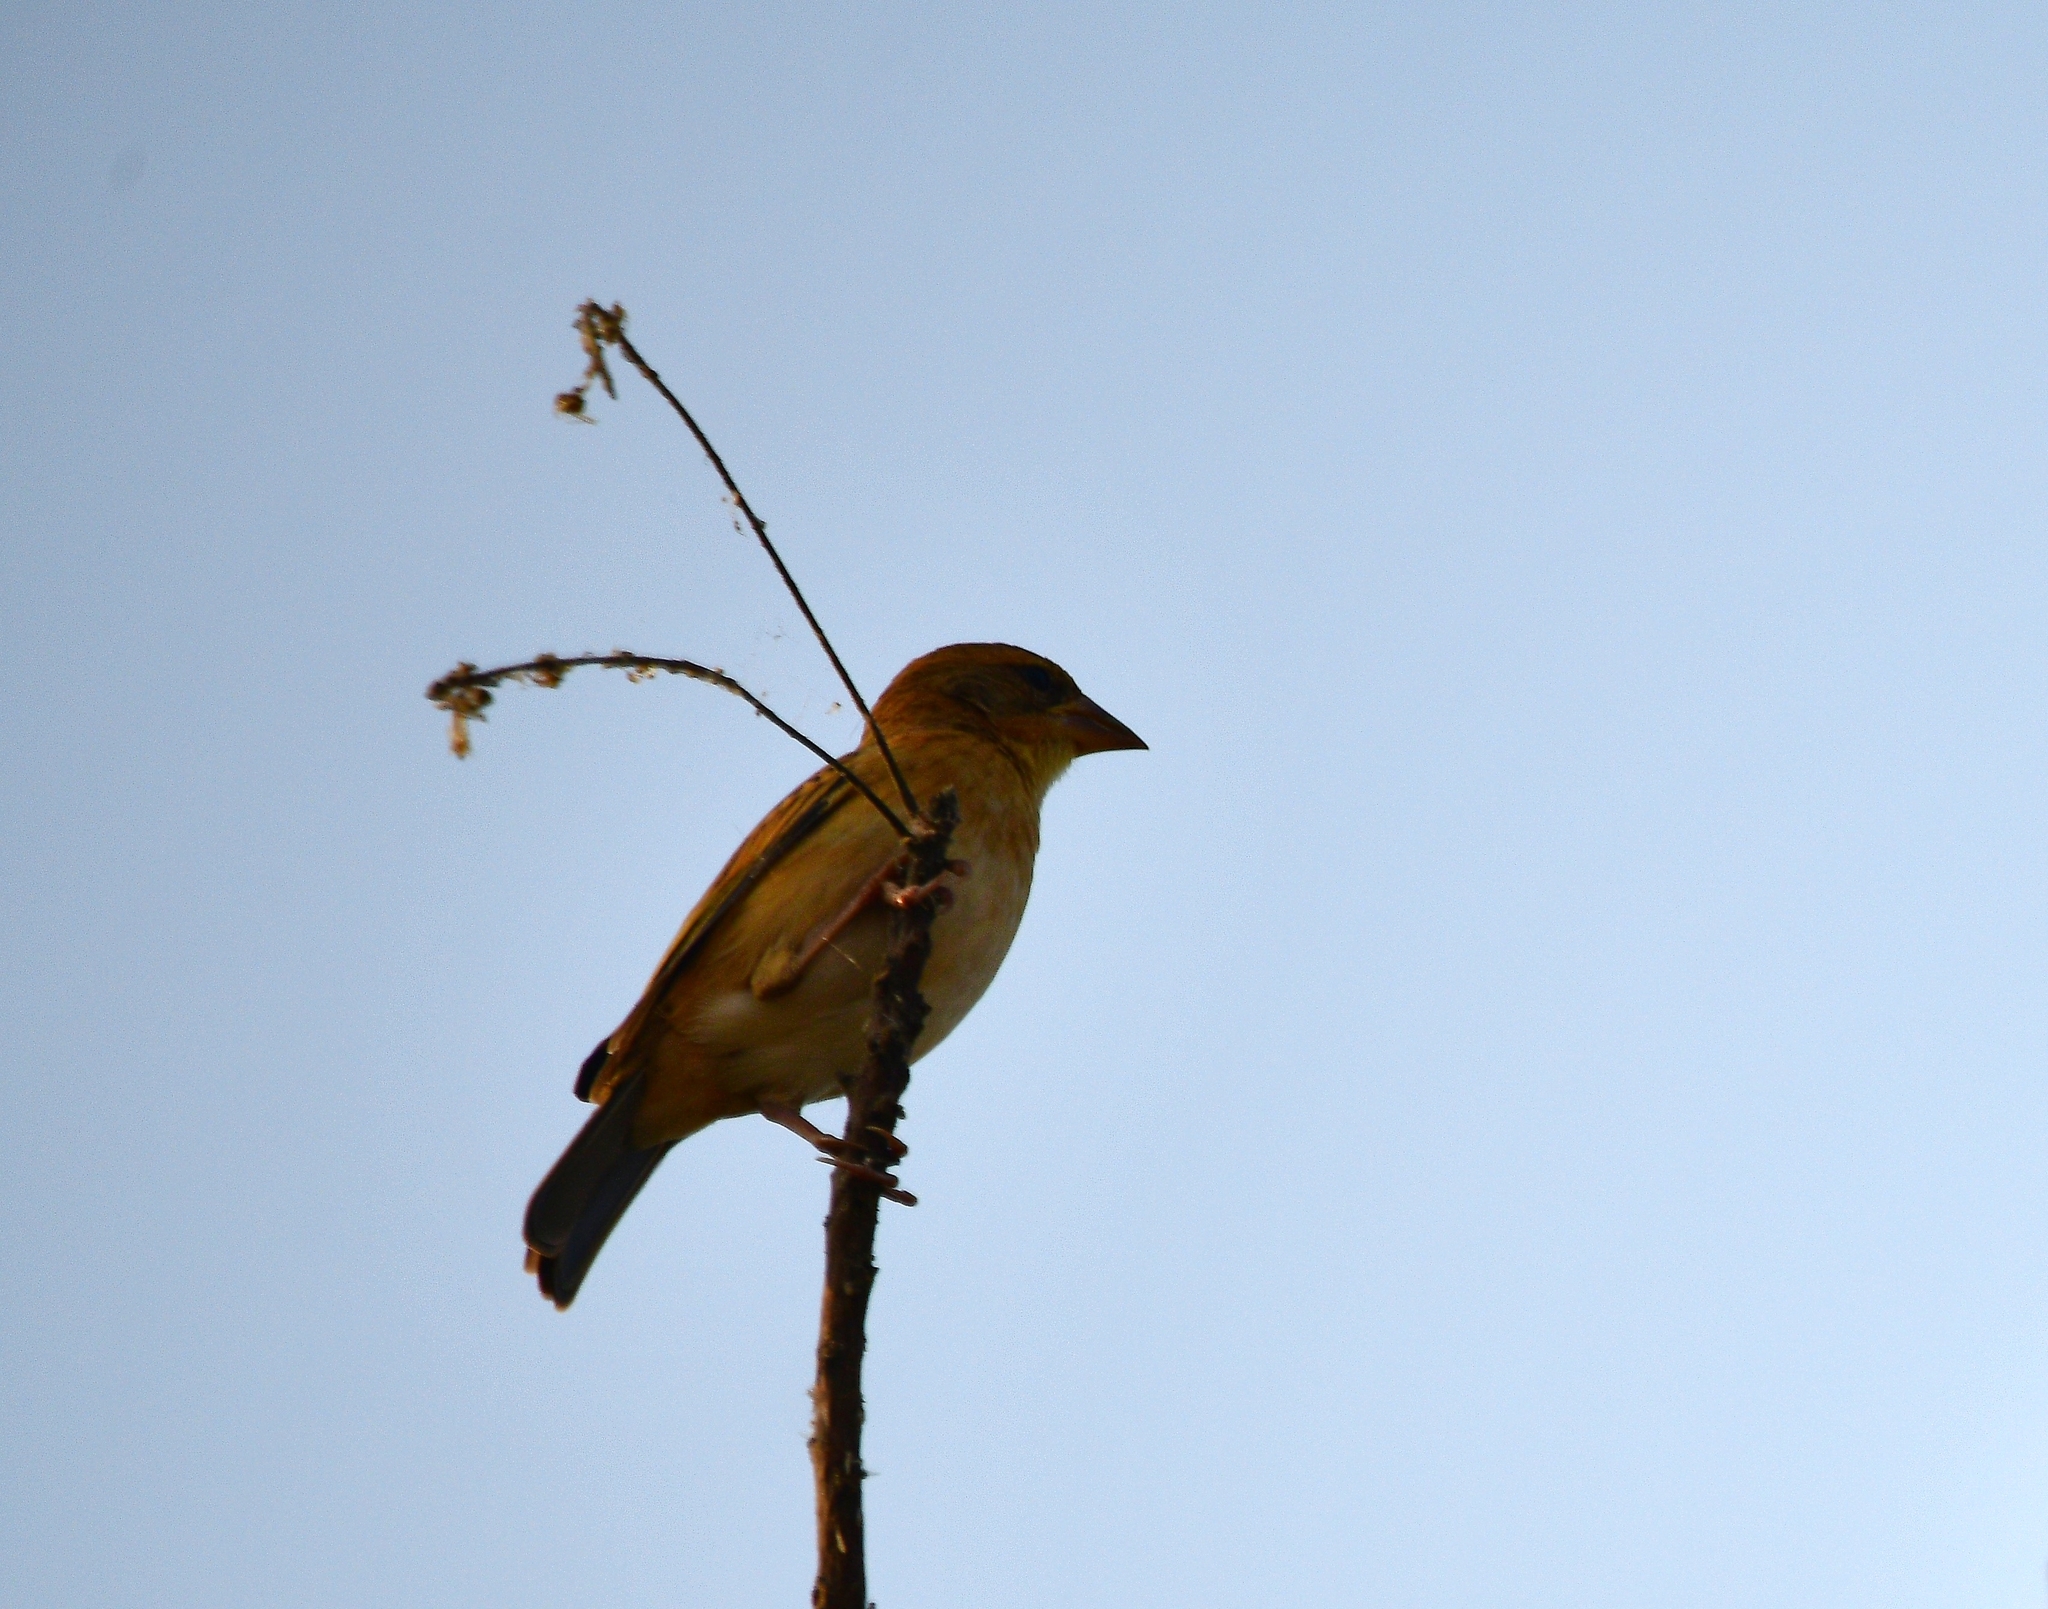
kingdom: Animalia
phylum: Chordata
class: Aves
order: Passeriformes
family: Ploceidae
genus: Ploceus
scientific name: Ploceus philippinus
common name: Baya weaver
